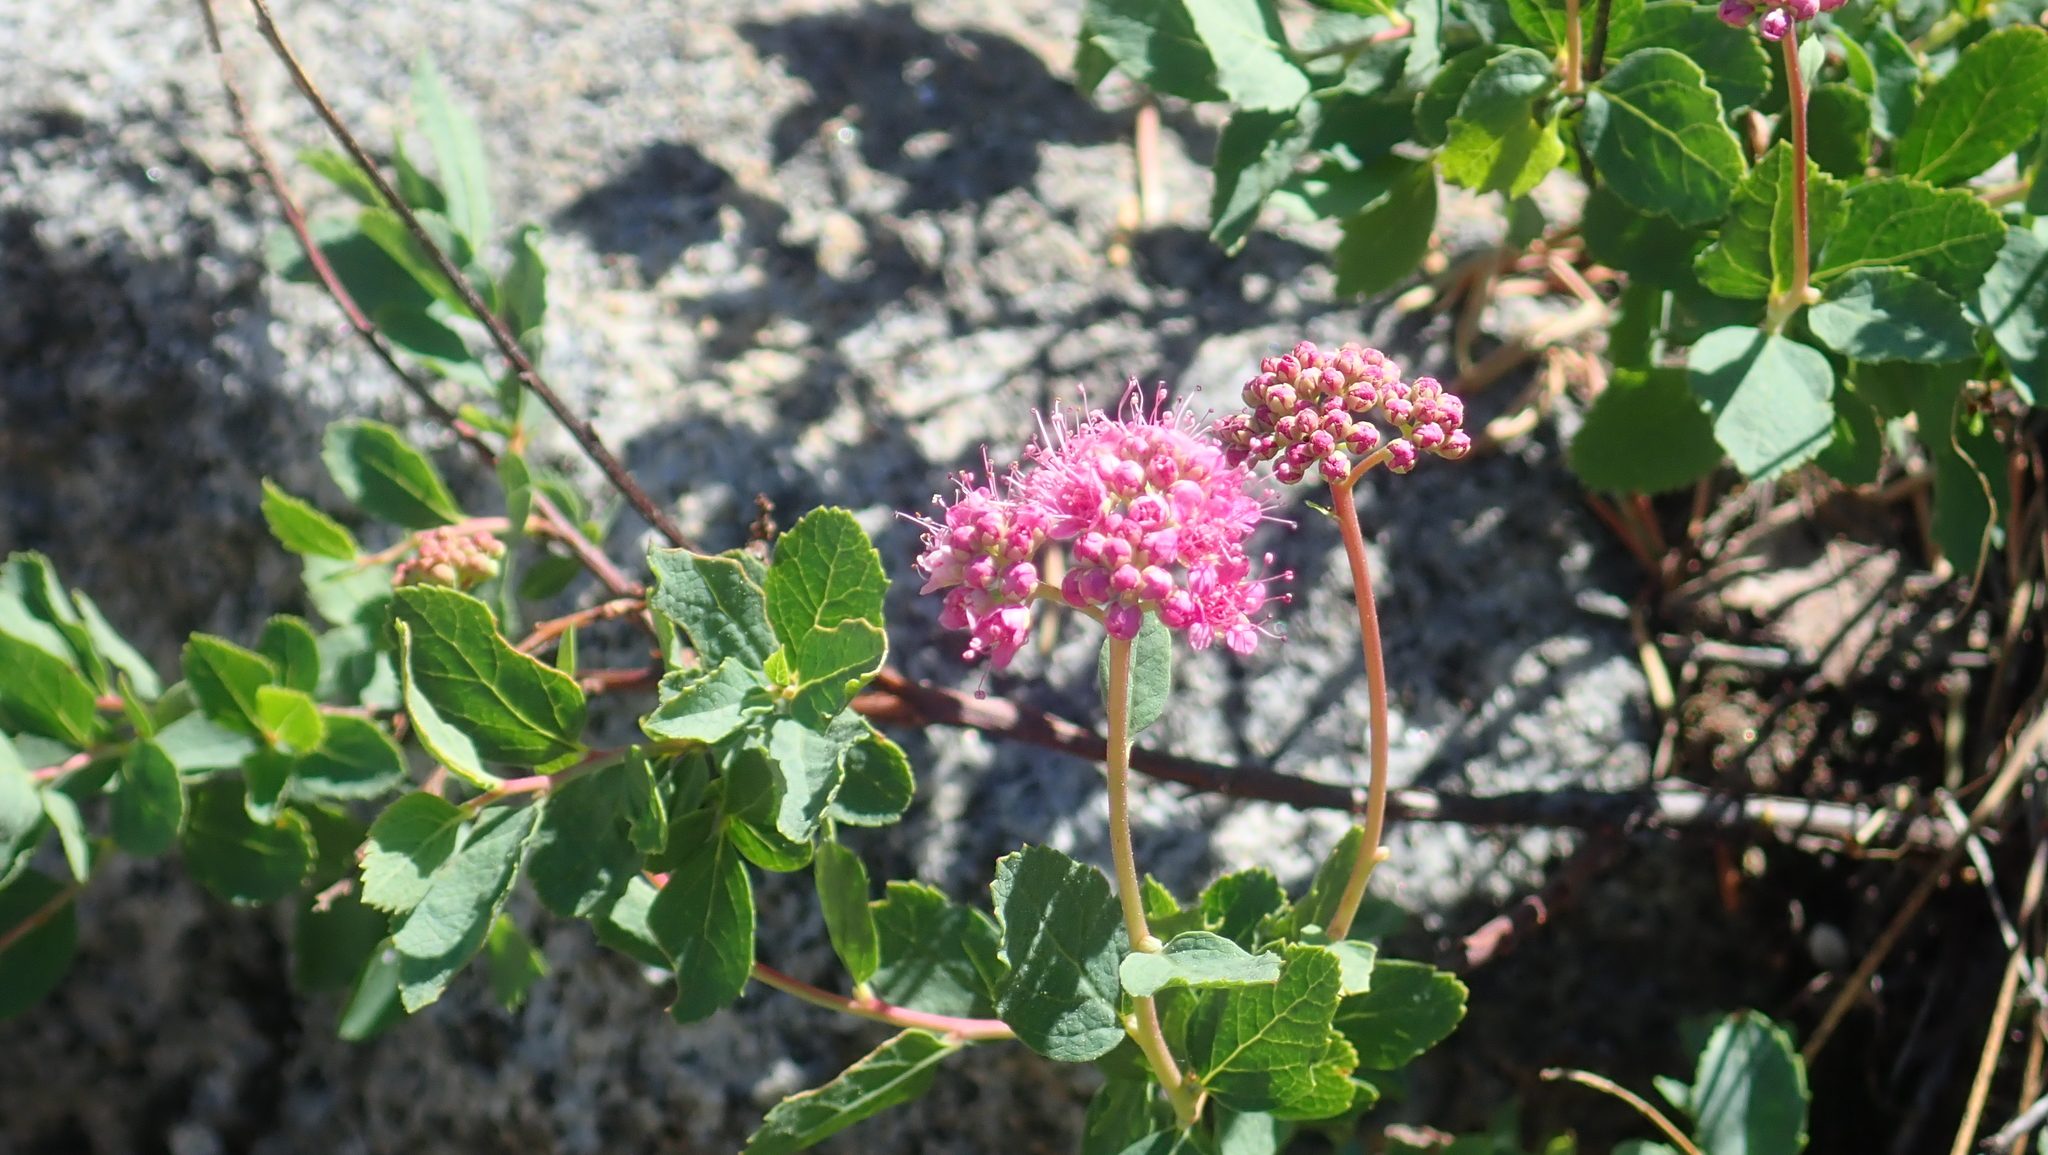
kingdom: Plantae
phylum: Tracheophyta
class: Magnoliopsida
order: Rosales
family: Rosaceae
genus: Spiraea
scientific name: Spiraea splendens
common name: Subalpine meadowsweet
